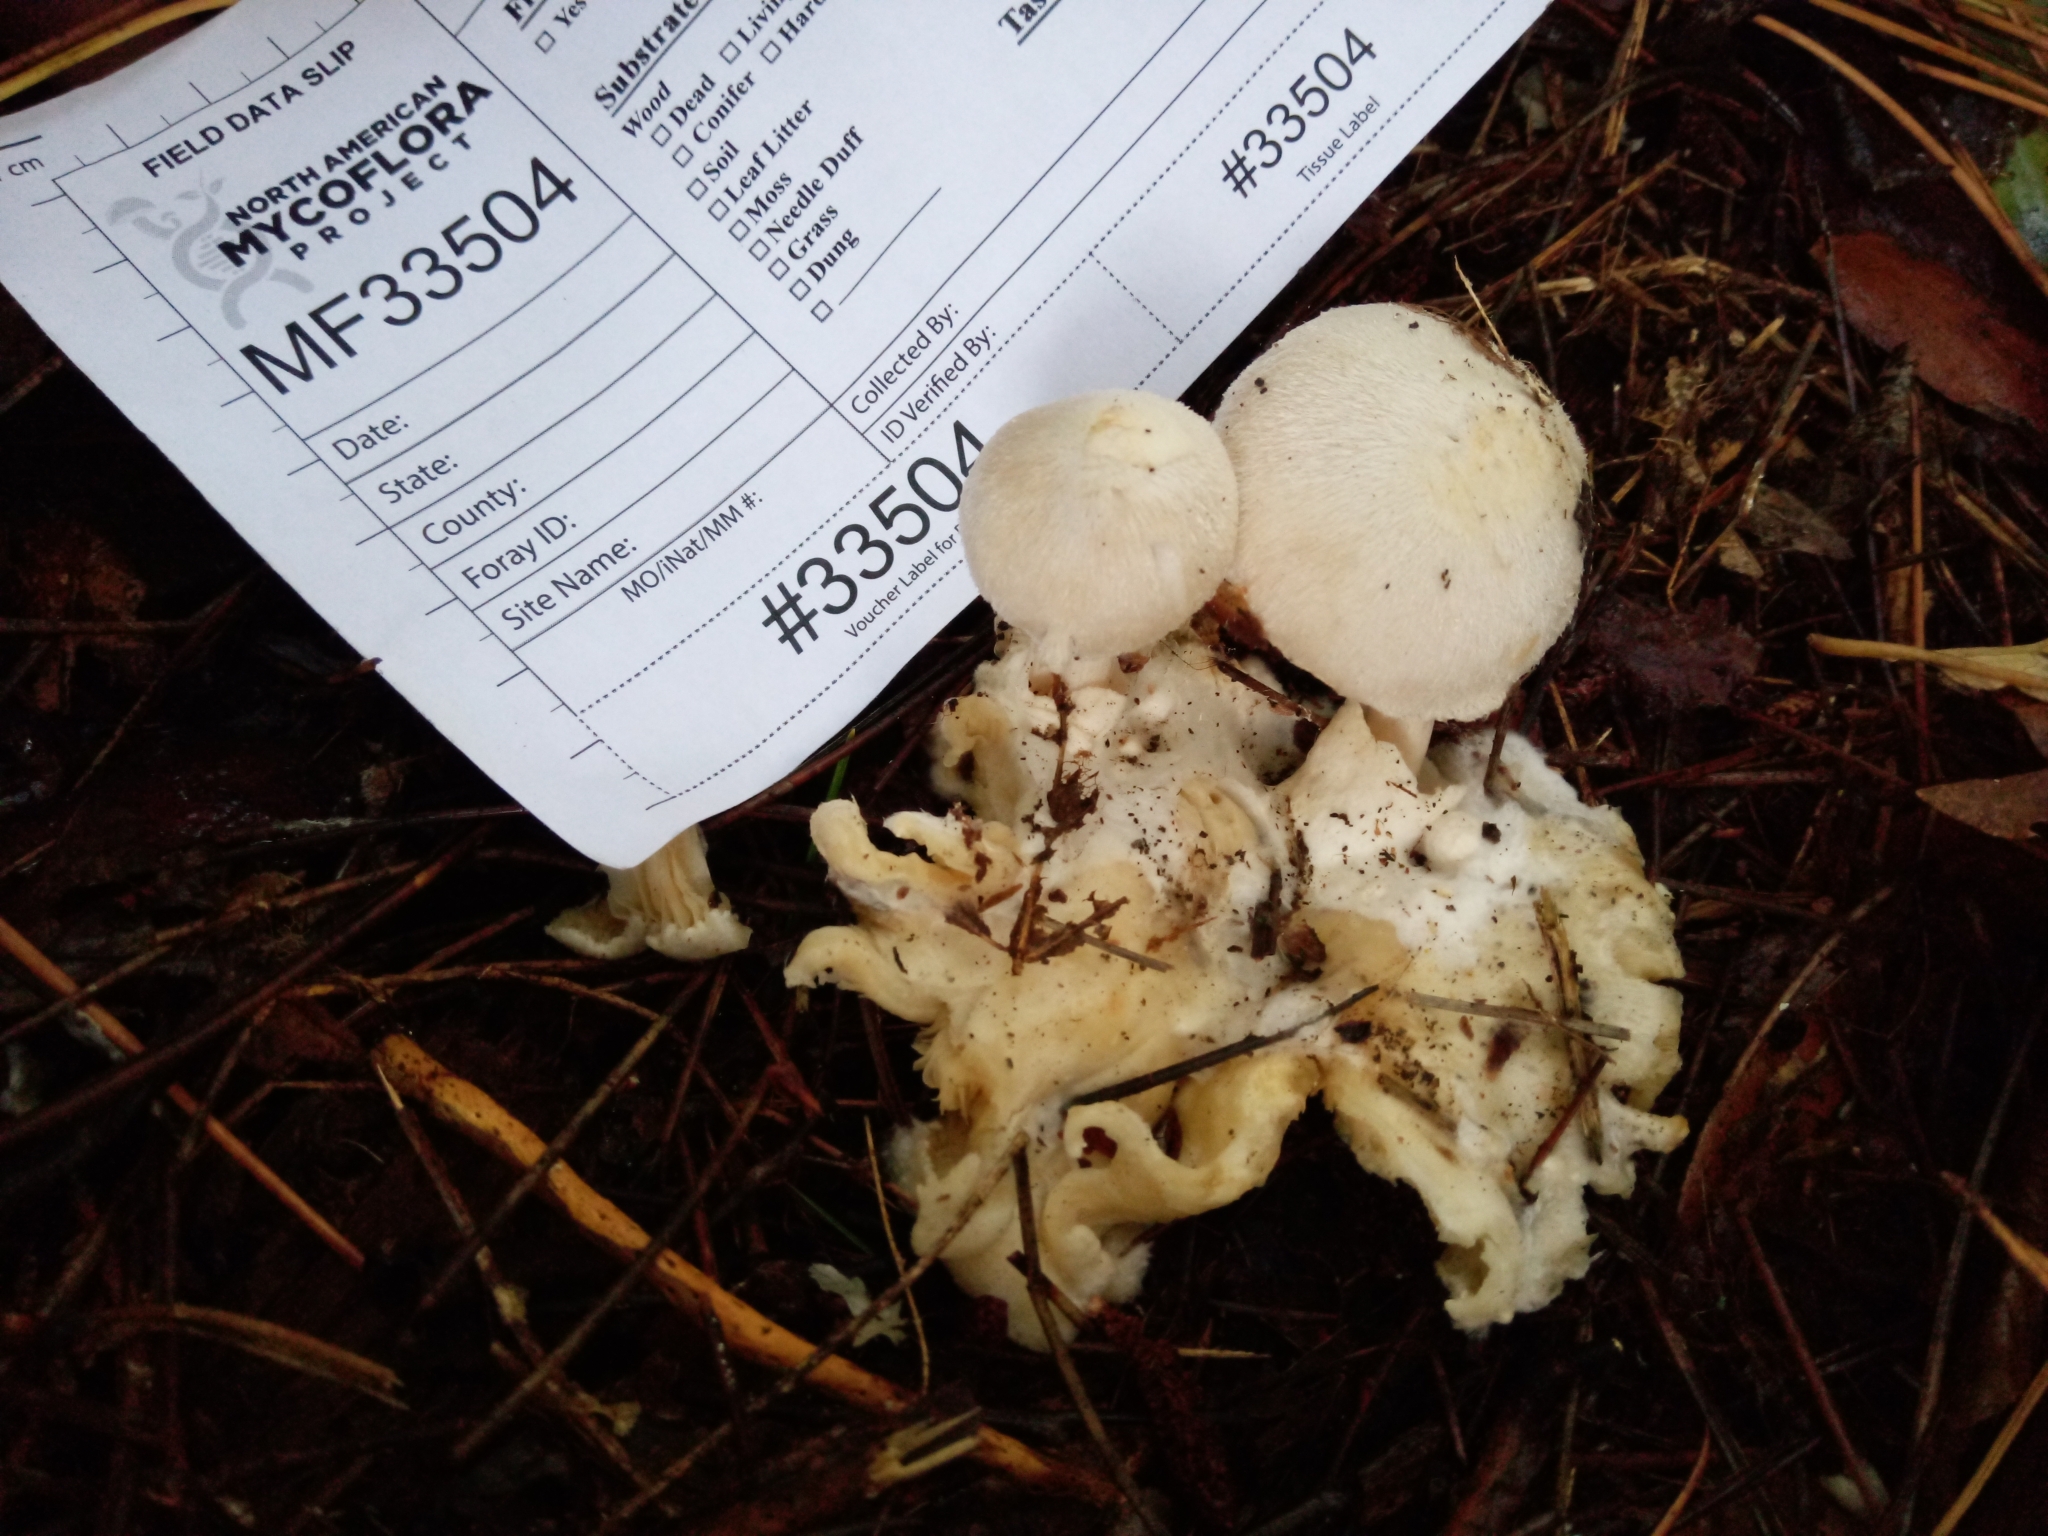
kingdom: Fungi
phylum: Basidiomycota
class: Agaricomycetes
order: Agaricales
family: Pluteaceae
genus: Volvariella
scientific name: Volvariella surrecta
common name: Piggyback rosegill
